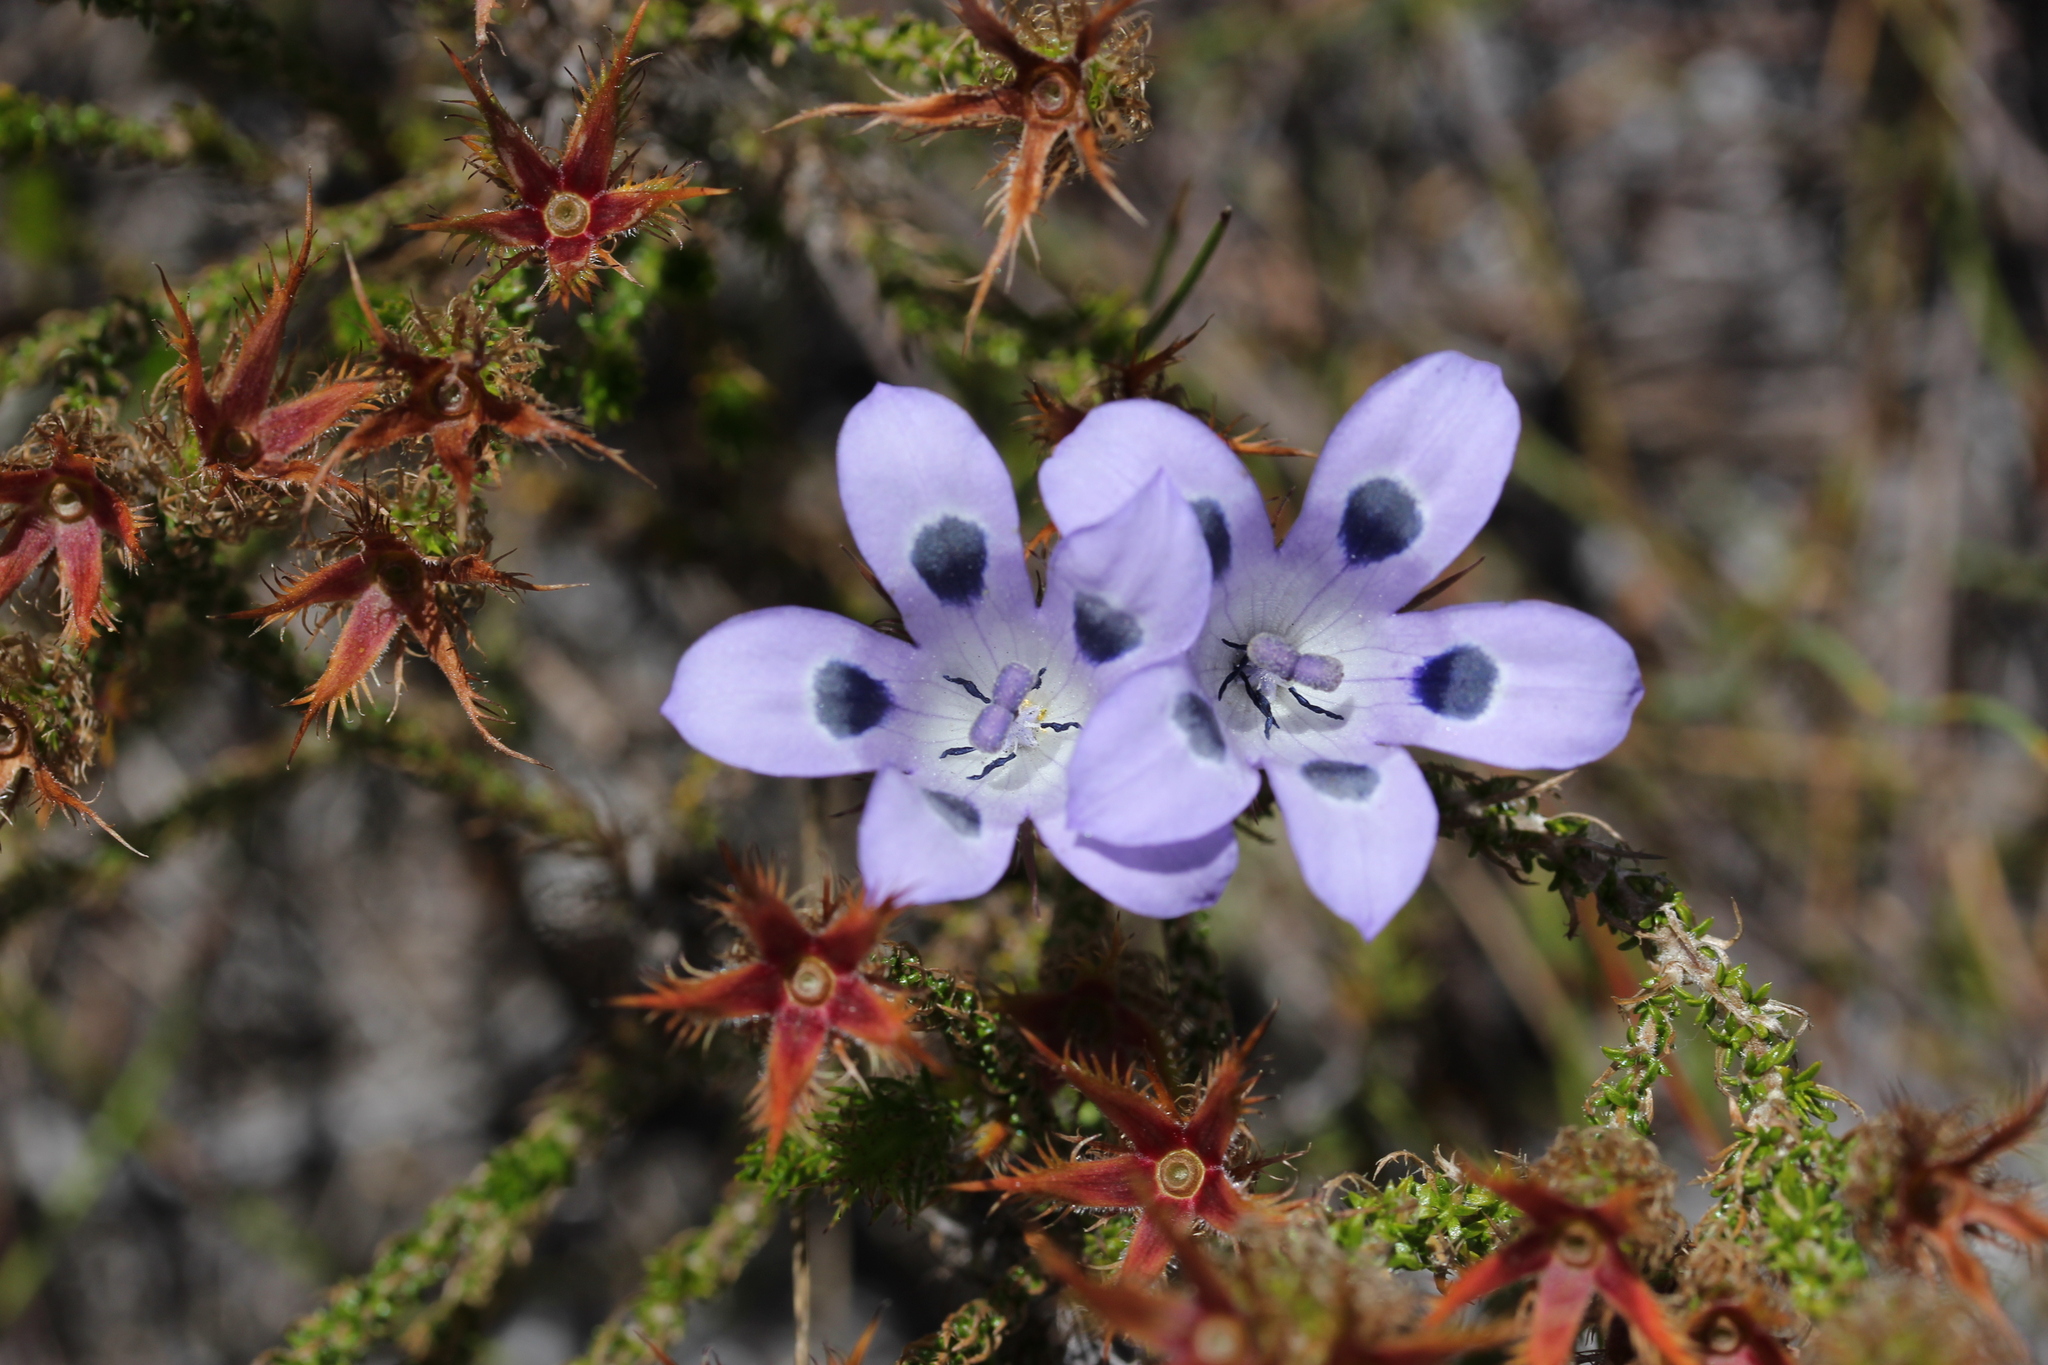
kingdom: Plantae
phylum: Tracheophyta
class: Magnoliopsida
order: Asterales
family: Campanulaceae
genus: Roella
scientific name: Roella incurva
